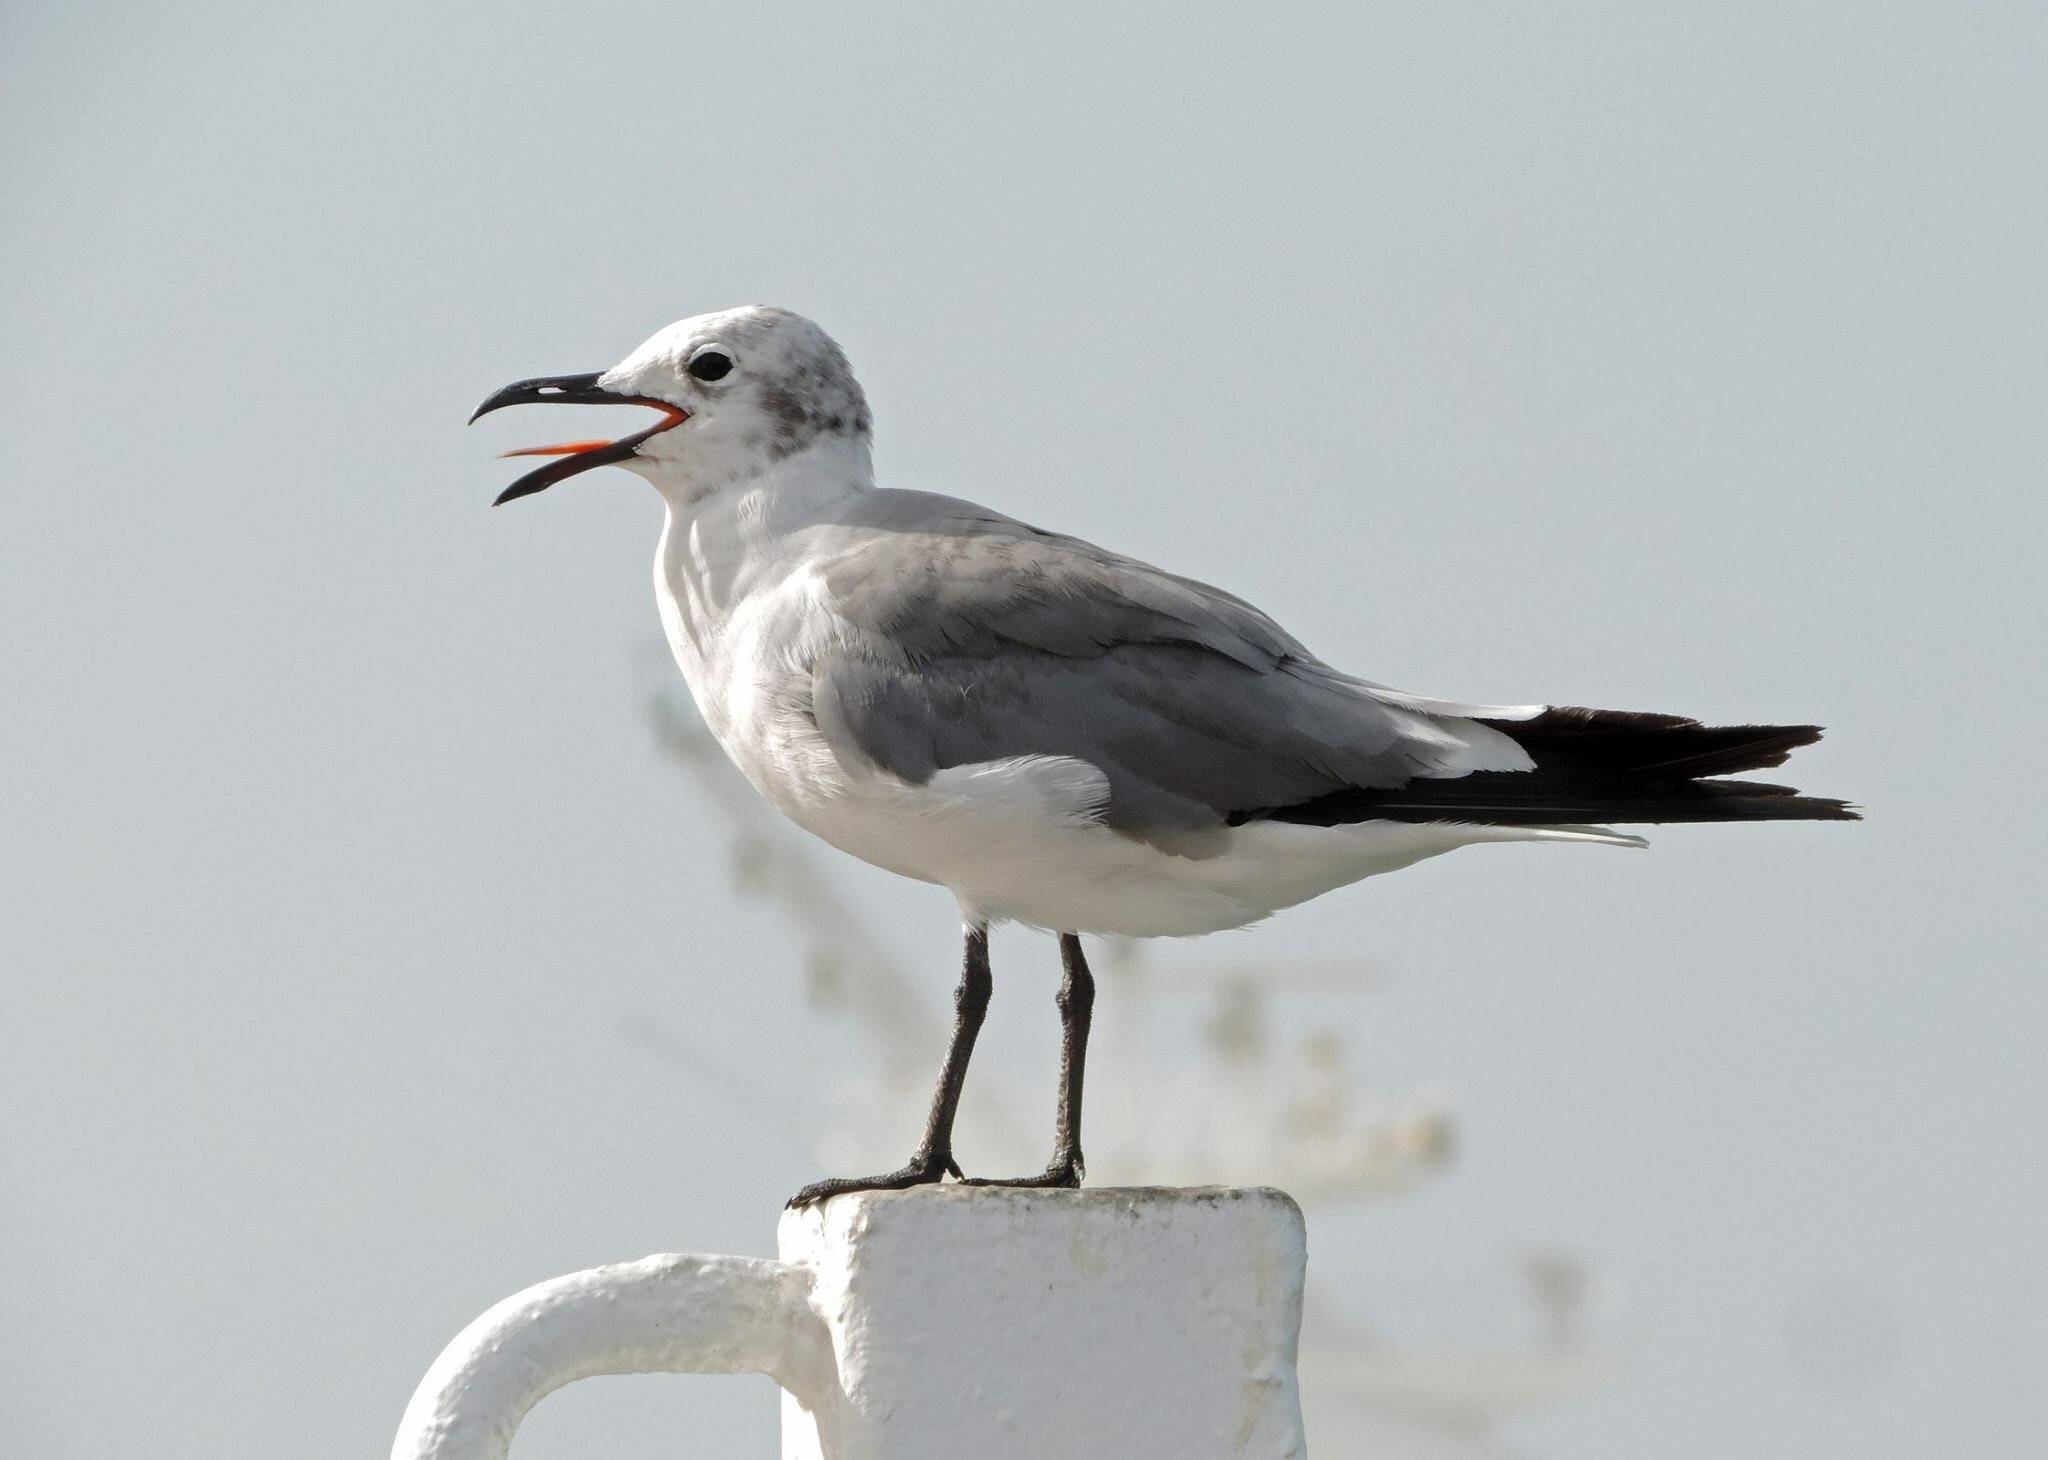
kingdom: Animalia
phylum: Chordata
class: Aves
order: Charadriiformes
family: Laridae
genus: Leucophaeus
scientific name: Leucophaeus atricilla
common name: Laughing gull
